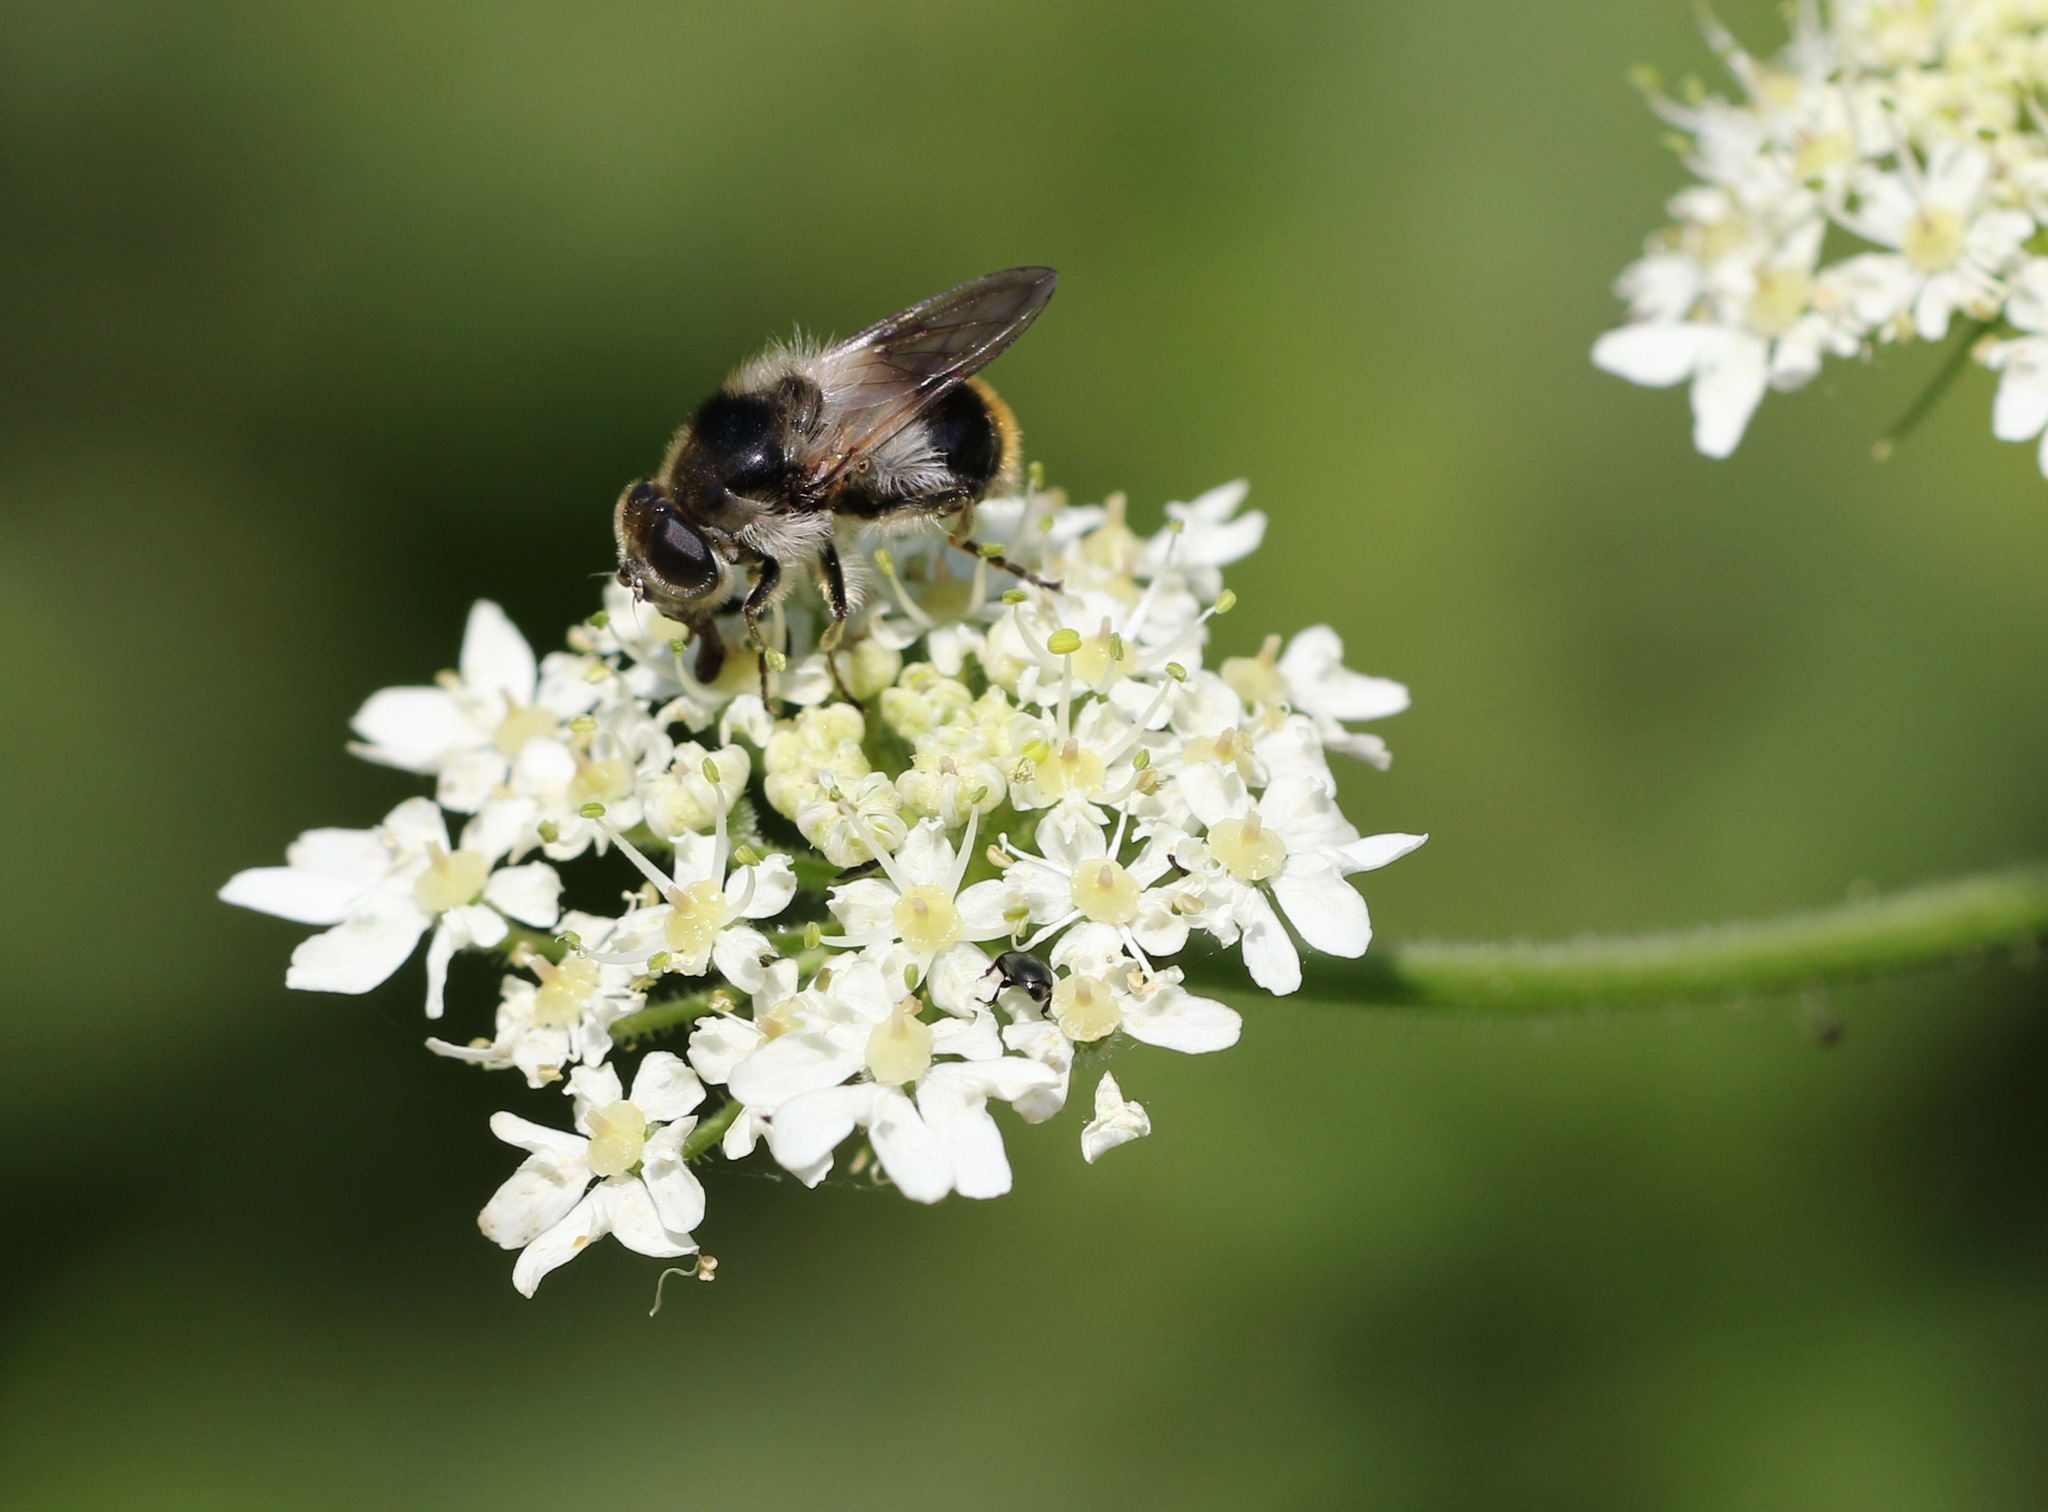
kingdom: Animalia
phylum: Arthropoda
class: Insecta
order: Diptera
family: Syrphidae
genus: Cheilosia
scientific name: Cheilosia illustrata
